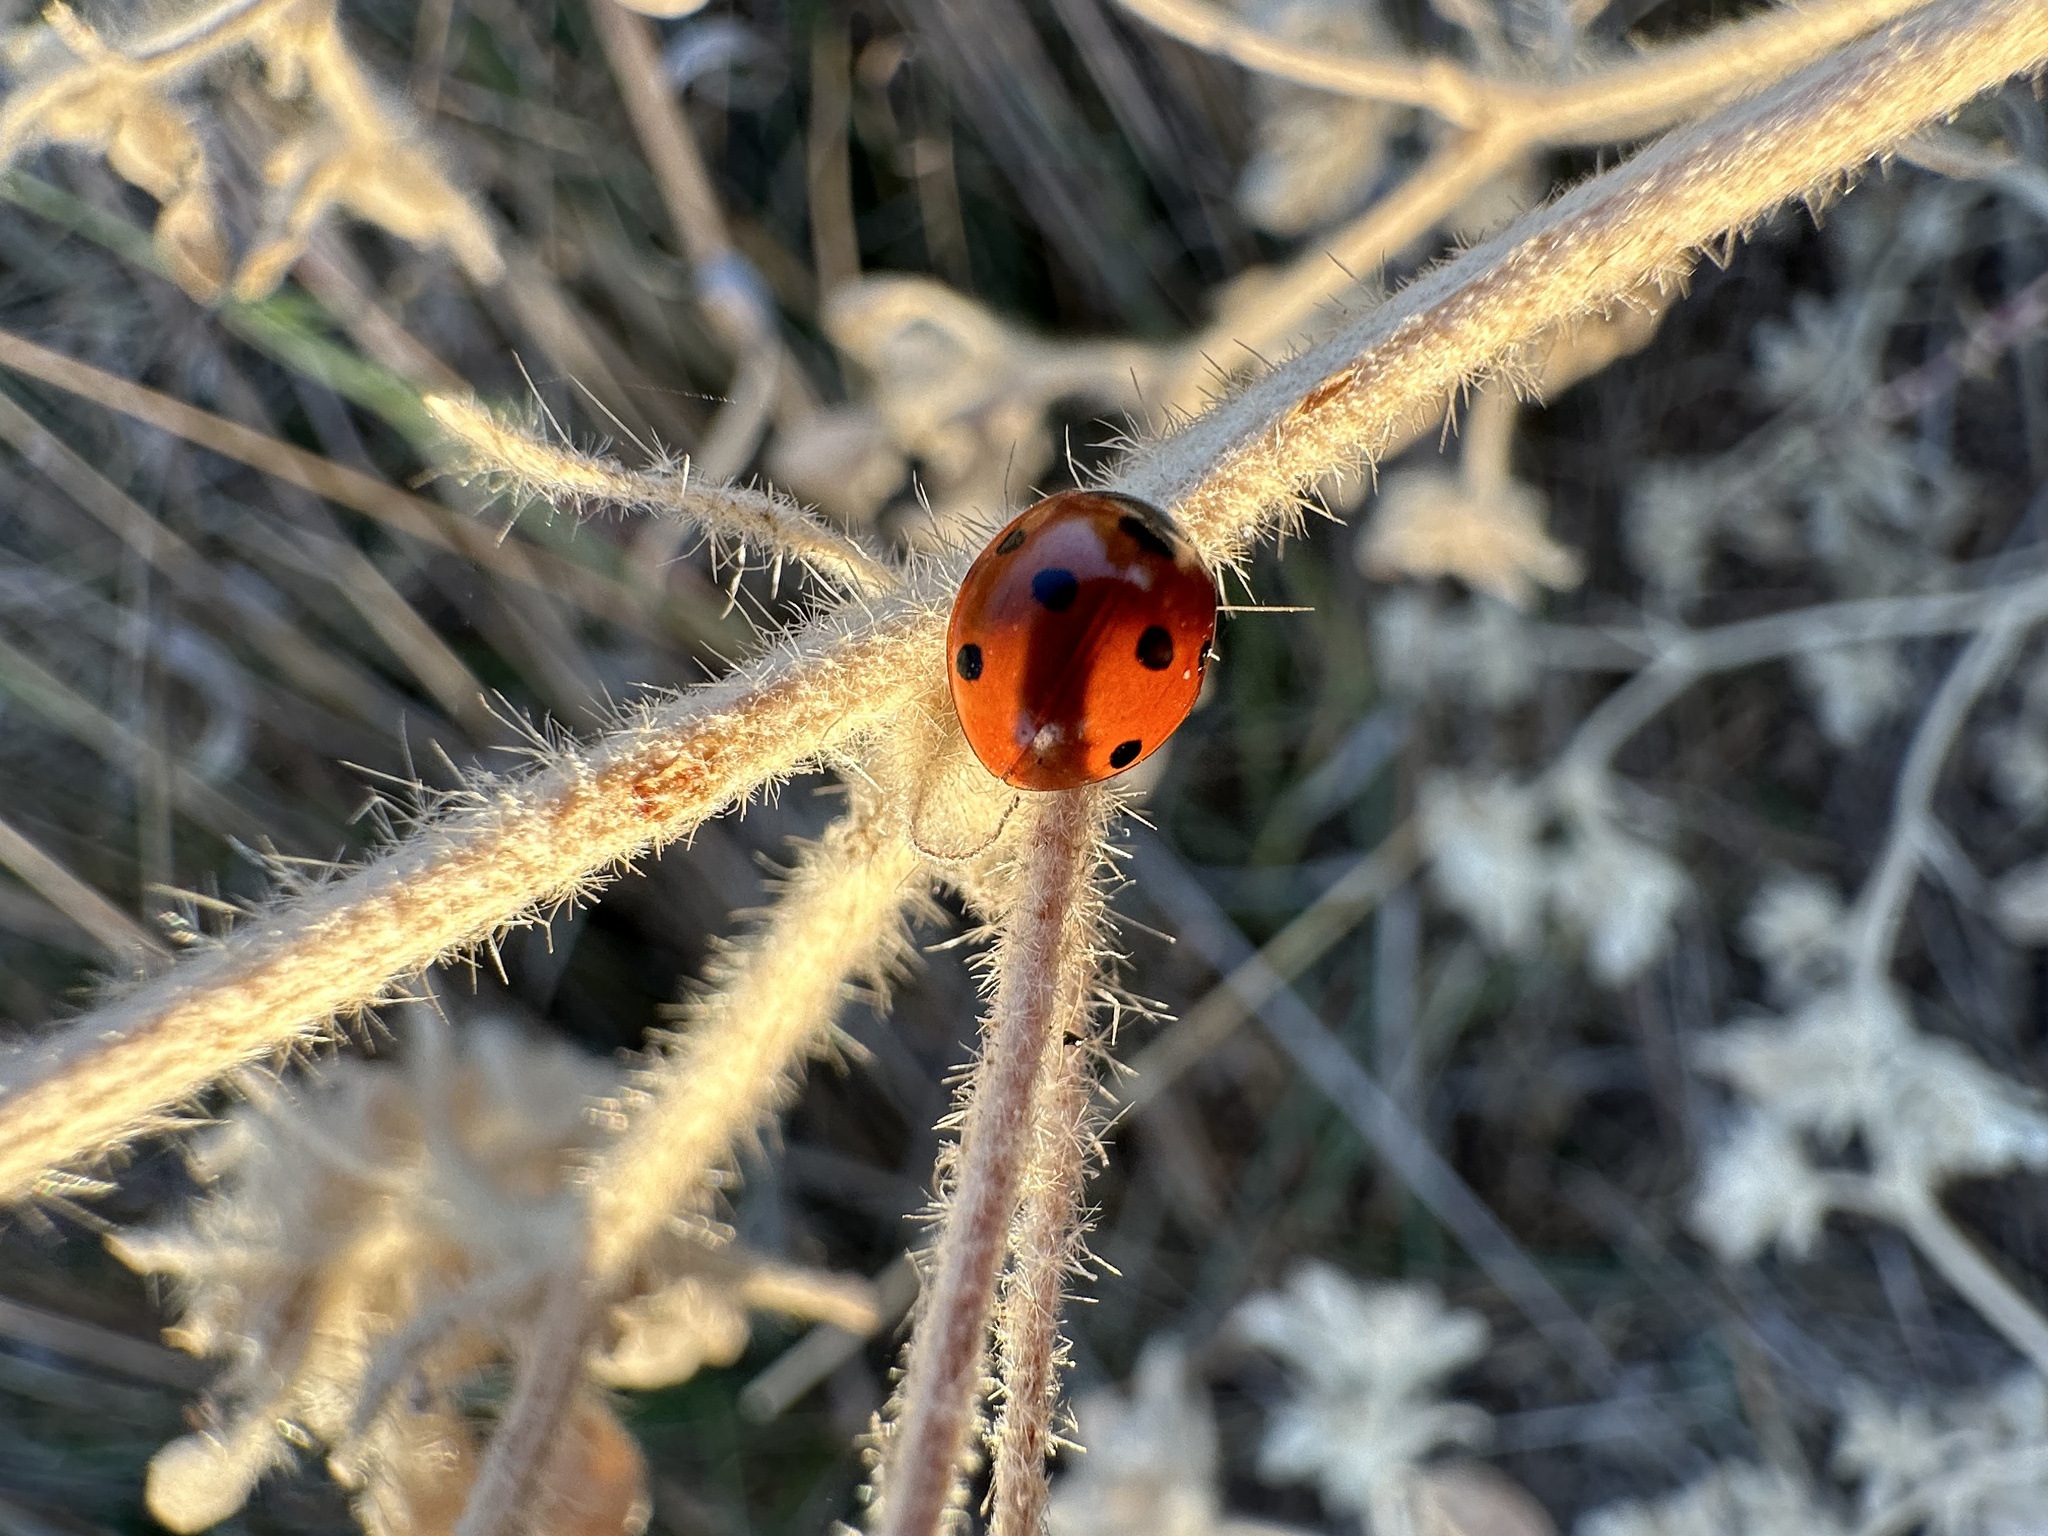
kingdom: Animalia
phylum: Arthropoda
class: Insecta
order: Coleoptera
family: Coccinellidae
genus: Coccinella
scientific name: Coccinella septempunctata
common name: Sevenspotted lady beetle
